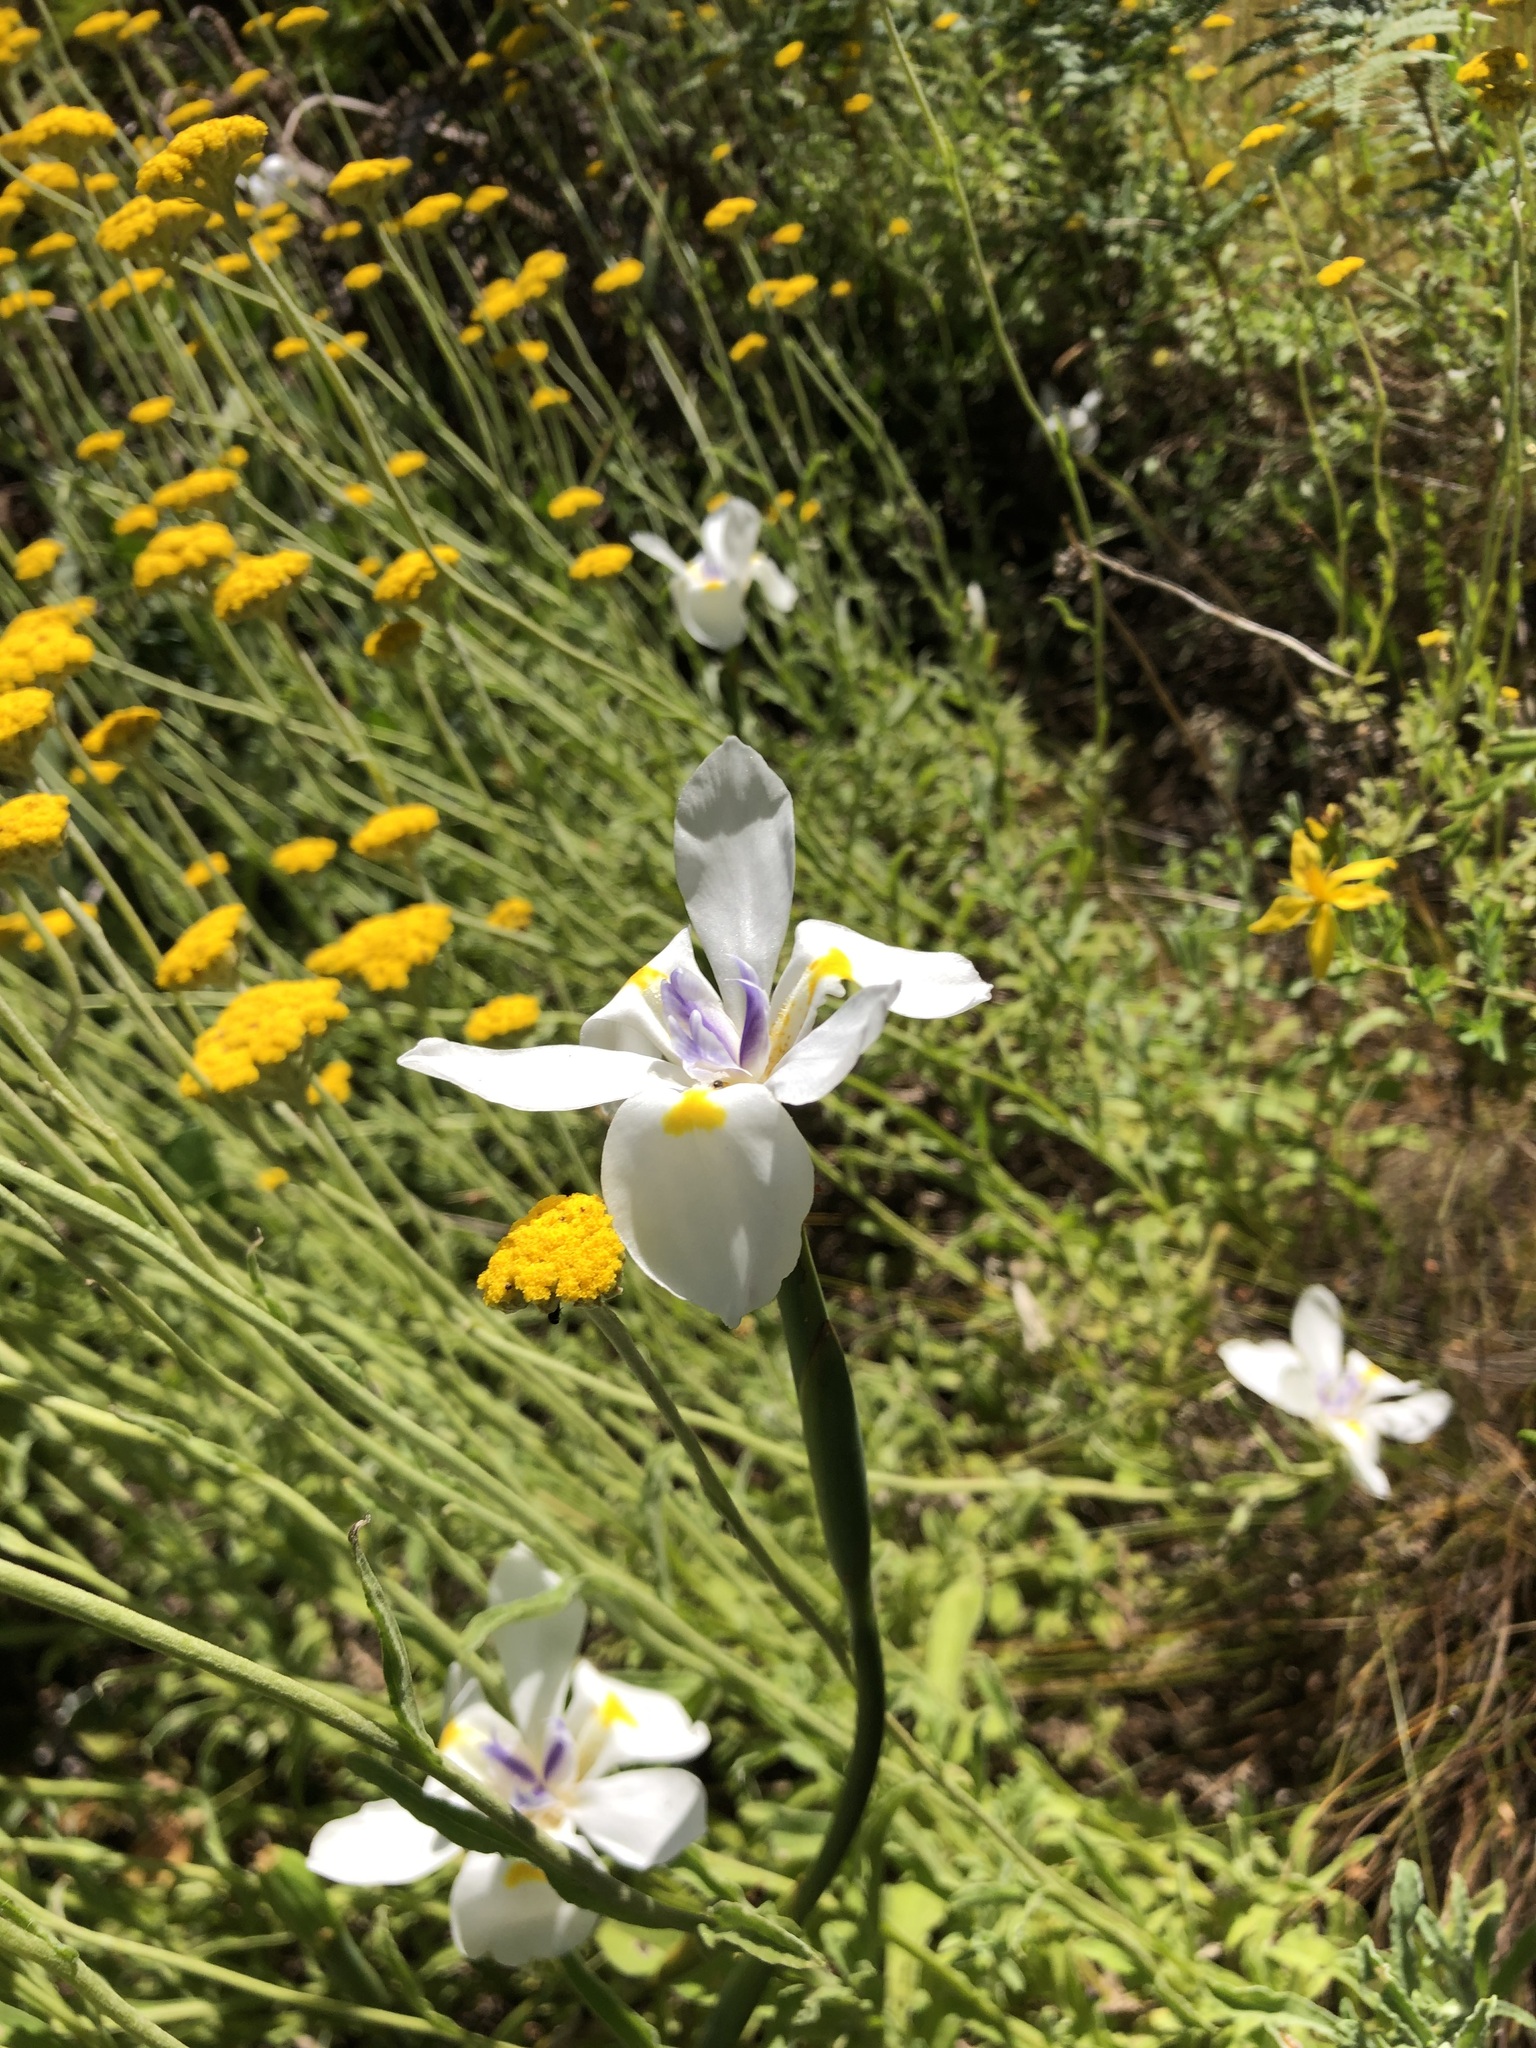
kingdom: Plantae
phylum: Tracheophyta
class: Liliopsida
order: Asparagales
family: Iridaceae
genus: Dietes
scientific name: Dietes grandiflora
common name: Wild iris
